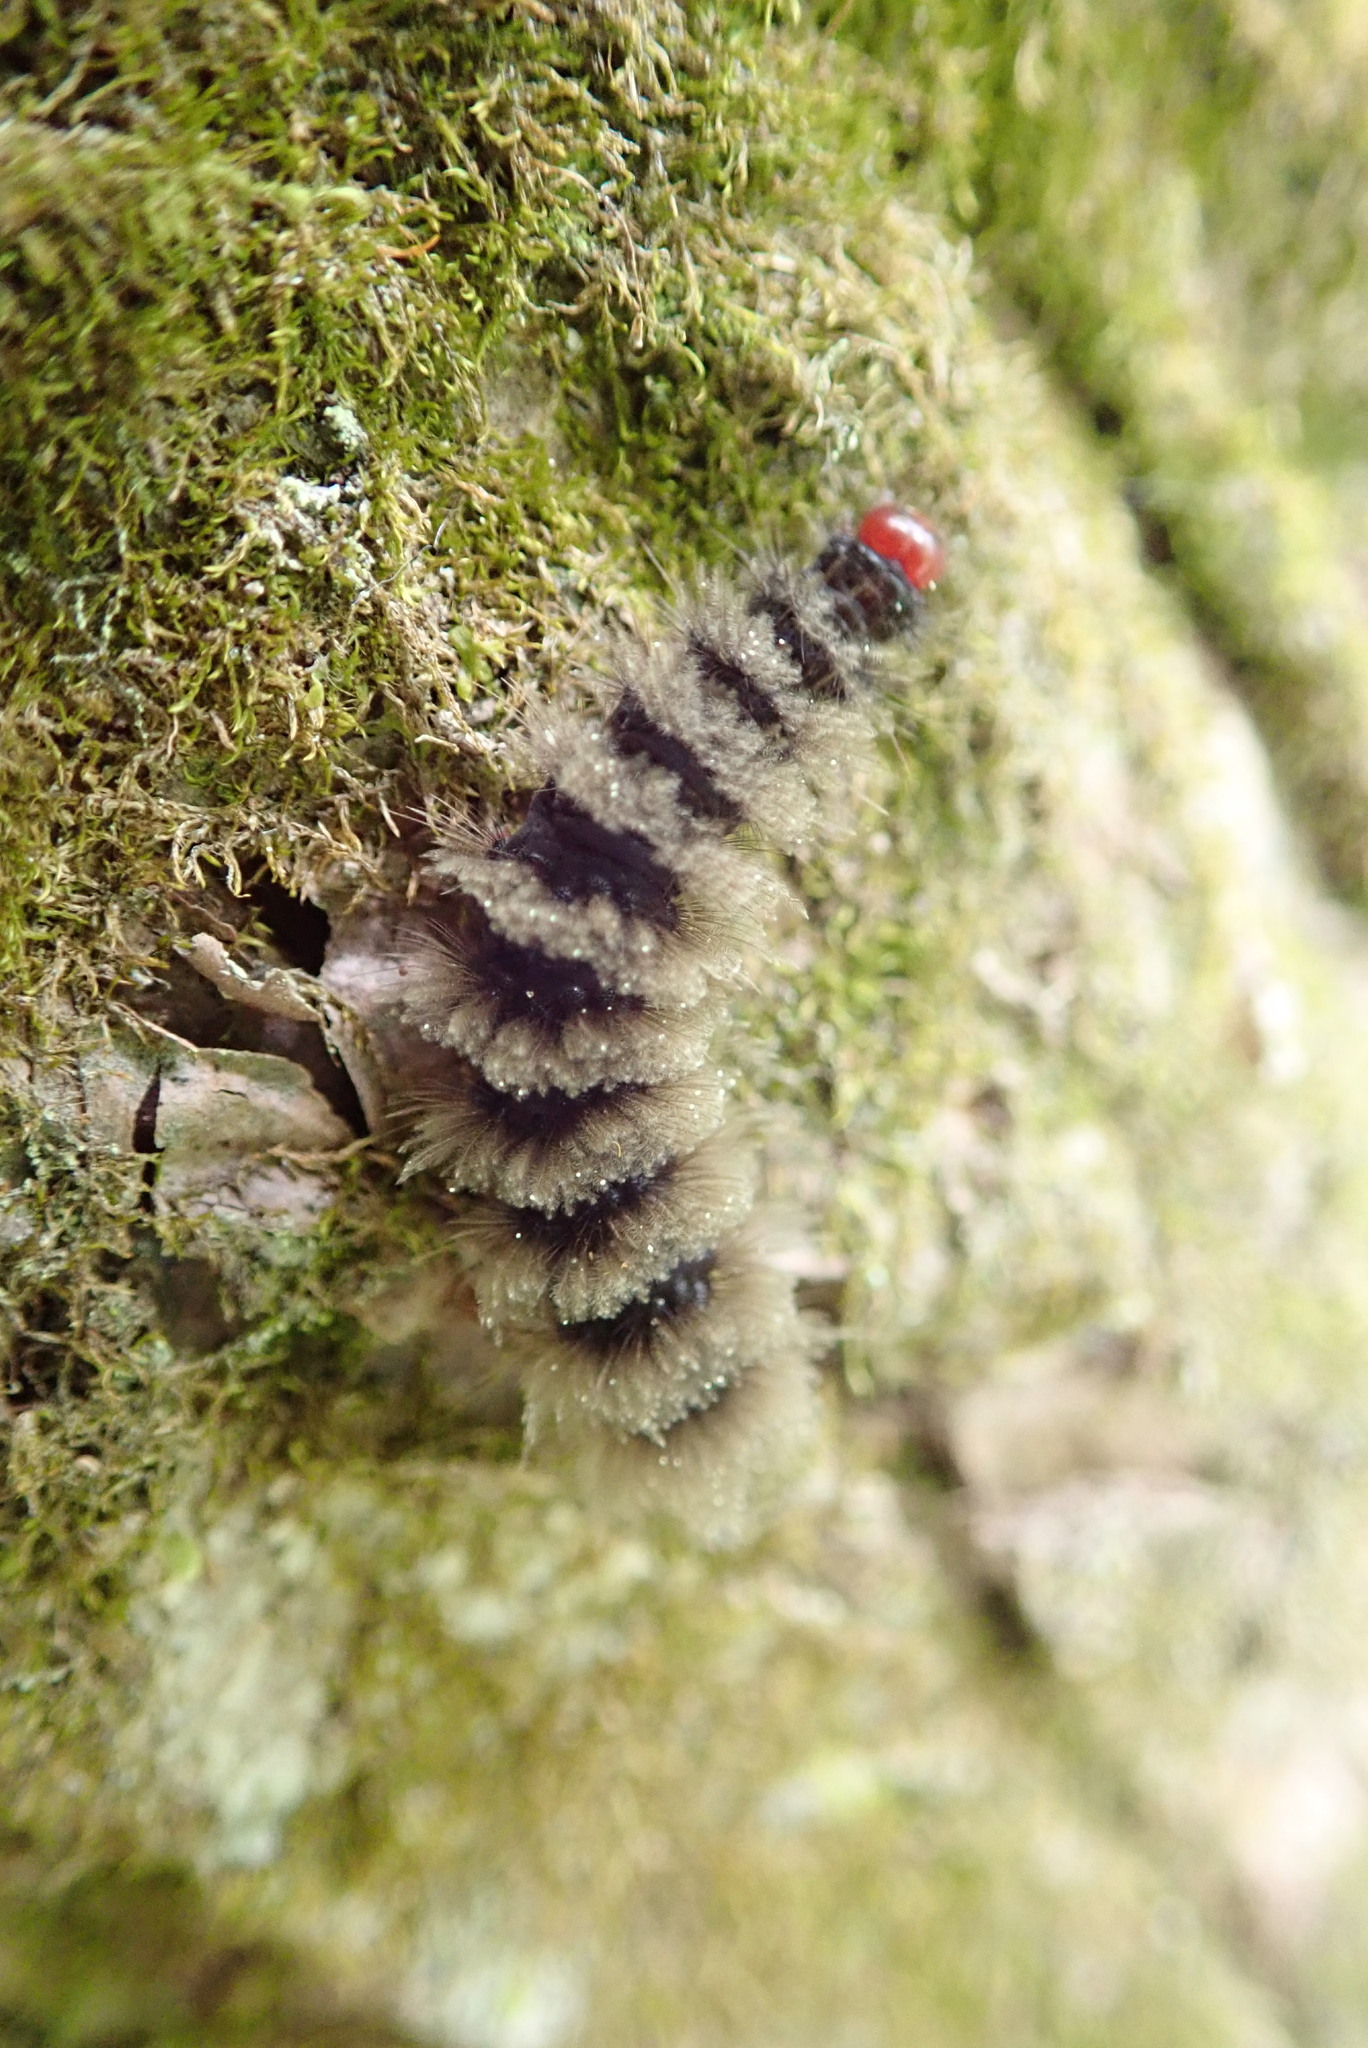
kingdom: Animalia
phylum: Arthropoda
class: Insecta
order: Lepidoptera
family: Erebidae
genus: Amata
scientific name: Amata phegea
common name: Nine-spotted
